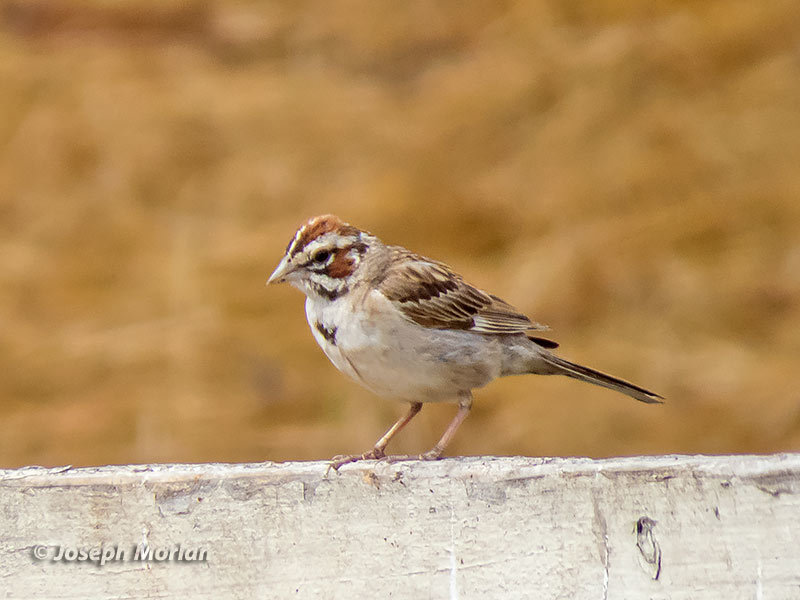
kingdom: Animalia
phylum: Chordata
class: Aves
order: Passeriformes
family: Passerellidae
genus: Chondestes
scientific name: Chondestes grammacus
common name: Lark sparrow
